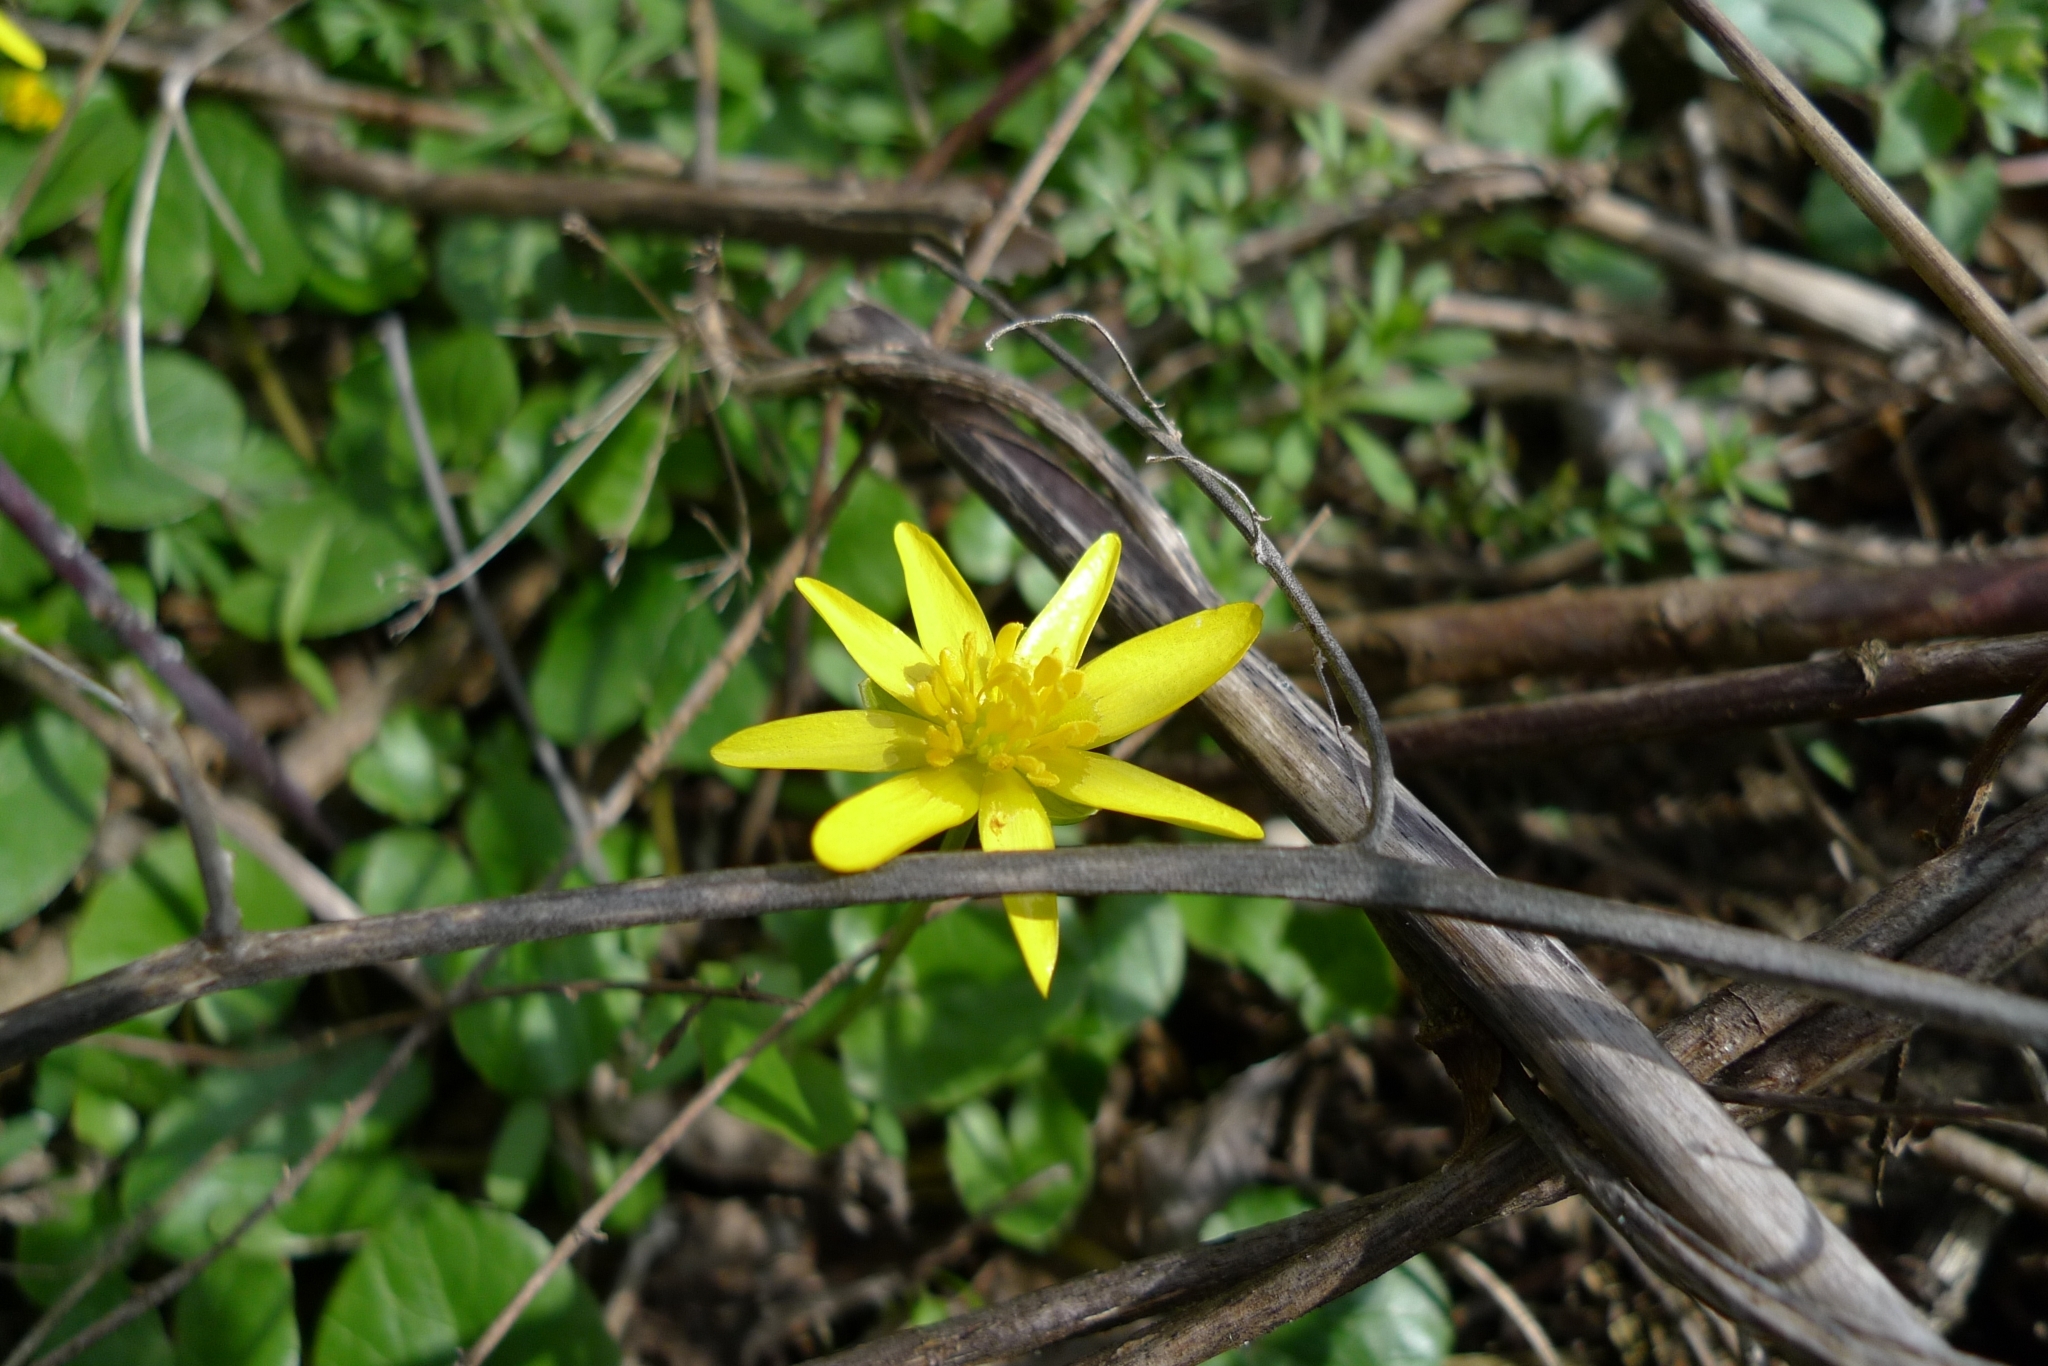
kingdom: Plantae
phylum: Tracheophyta
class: Magnoliopsida
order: Ranunculales
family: Ranunculaceae
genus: Ficaria
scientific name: Ficaria verna
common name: Lesser celandine
